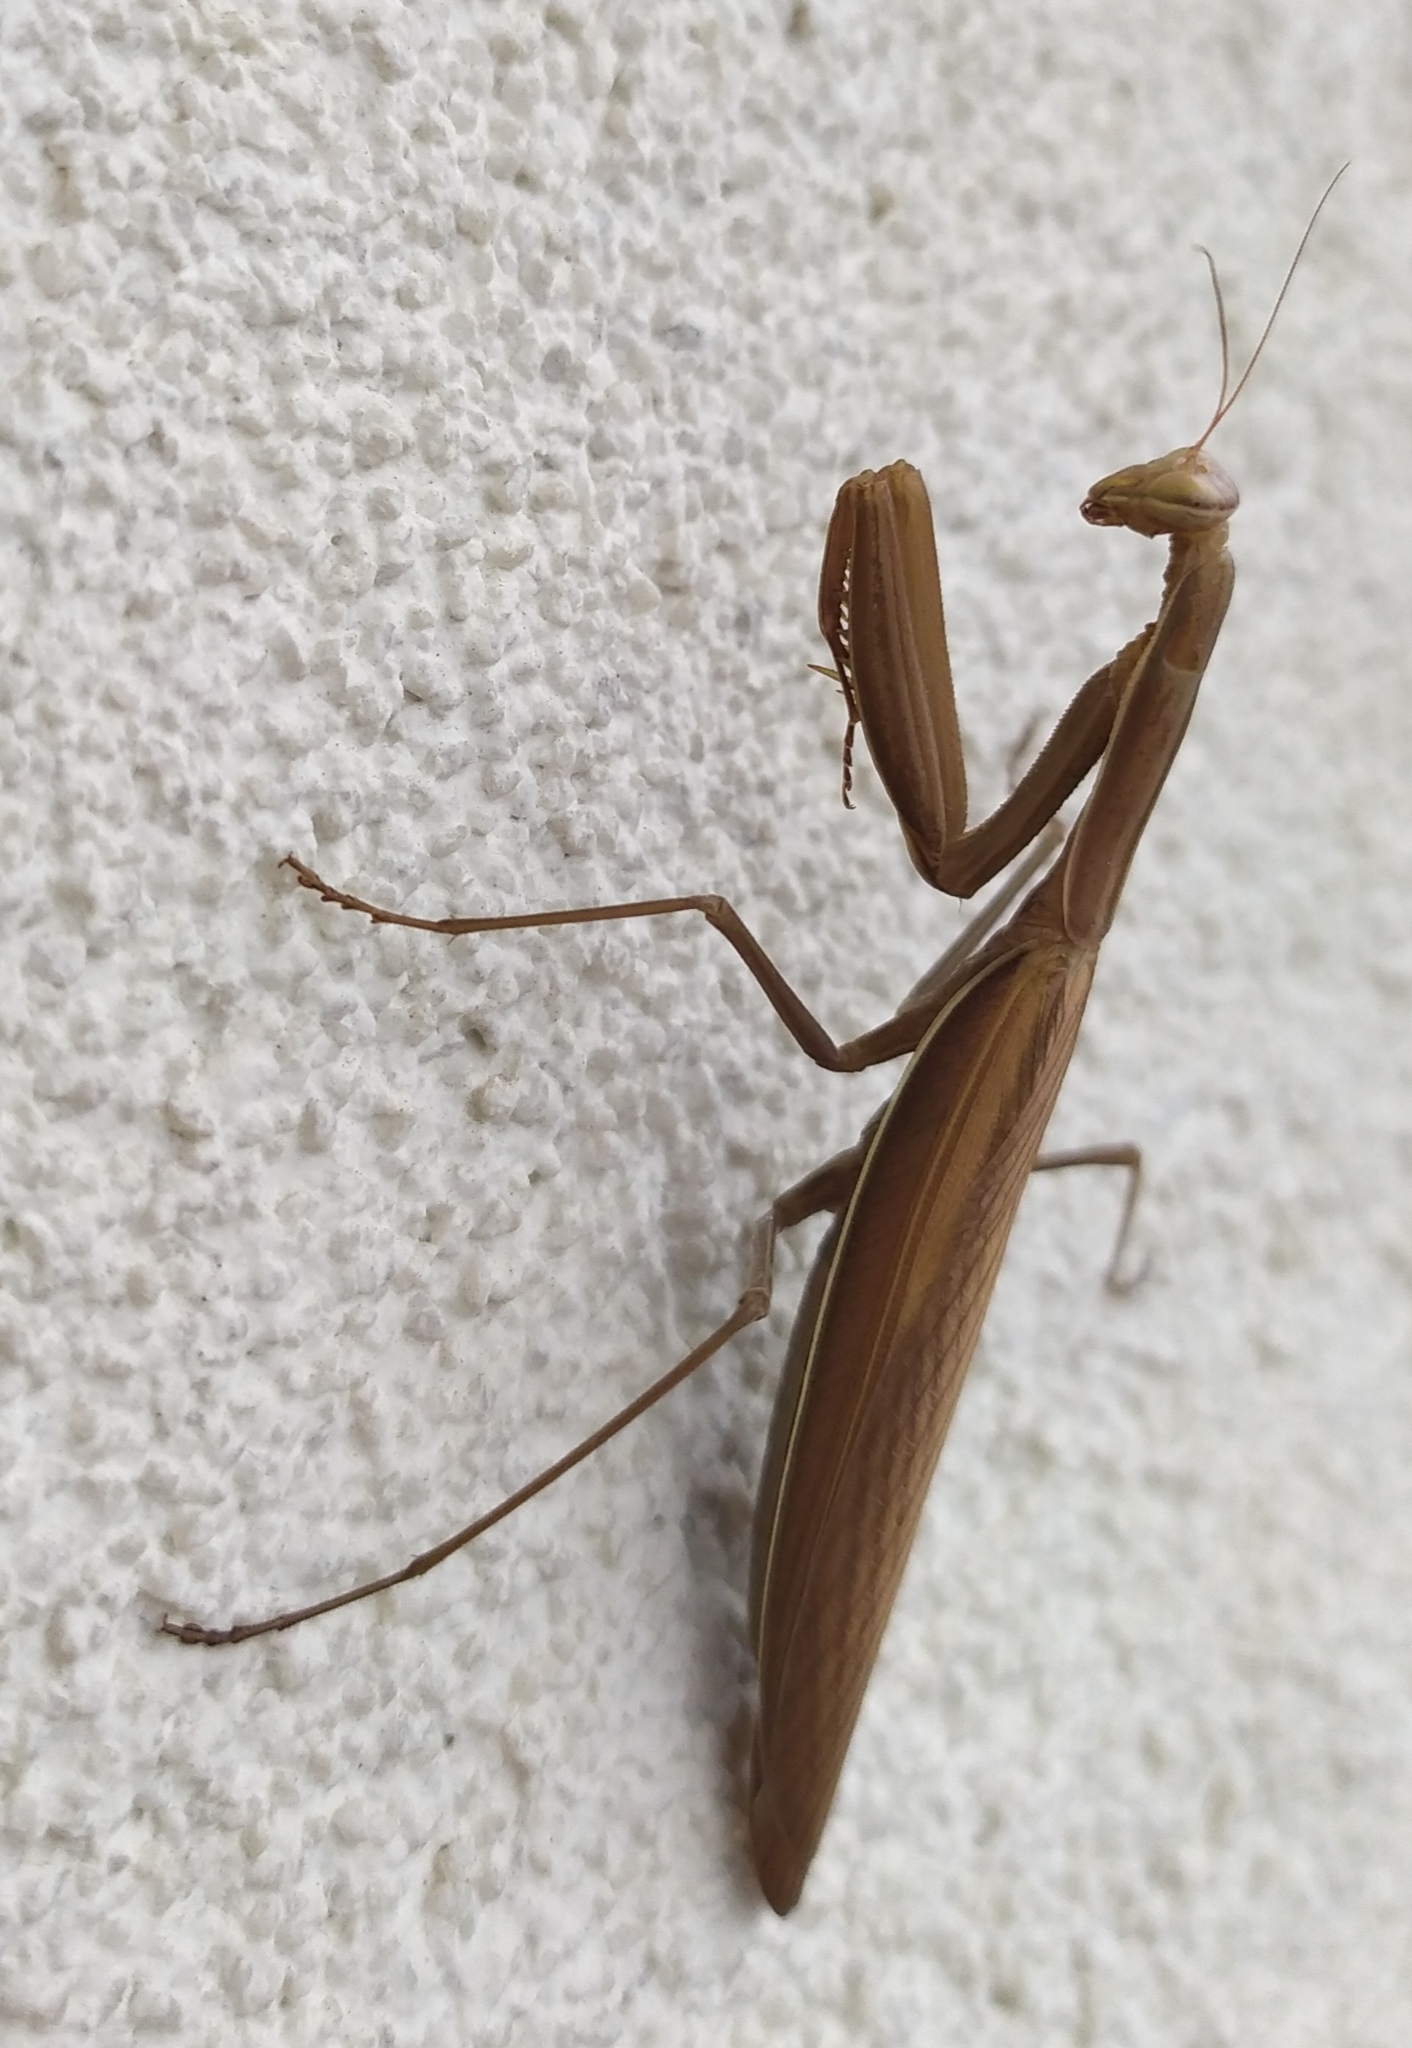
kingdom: Animalia
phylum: Arthropoda
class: Insecta
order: Mantodea
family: Mantidae
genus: Mantis
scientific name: Mantis religiosa
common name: Praying mantis
